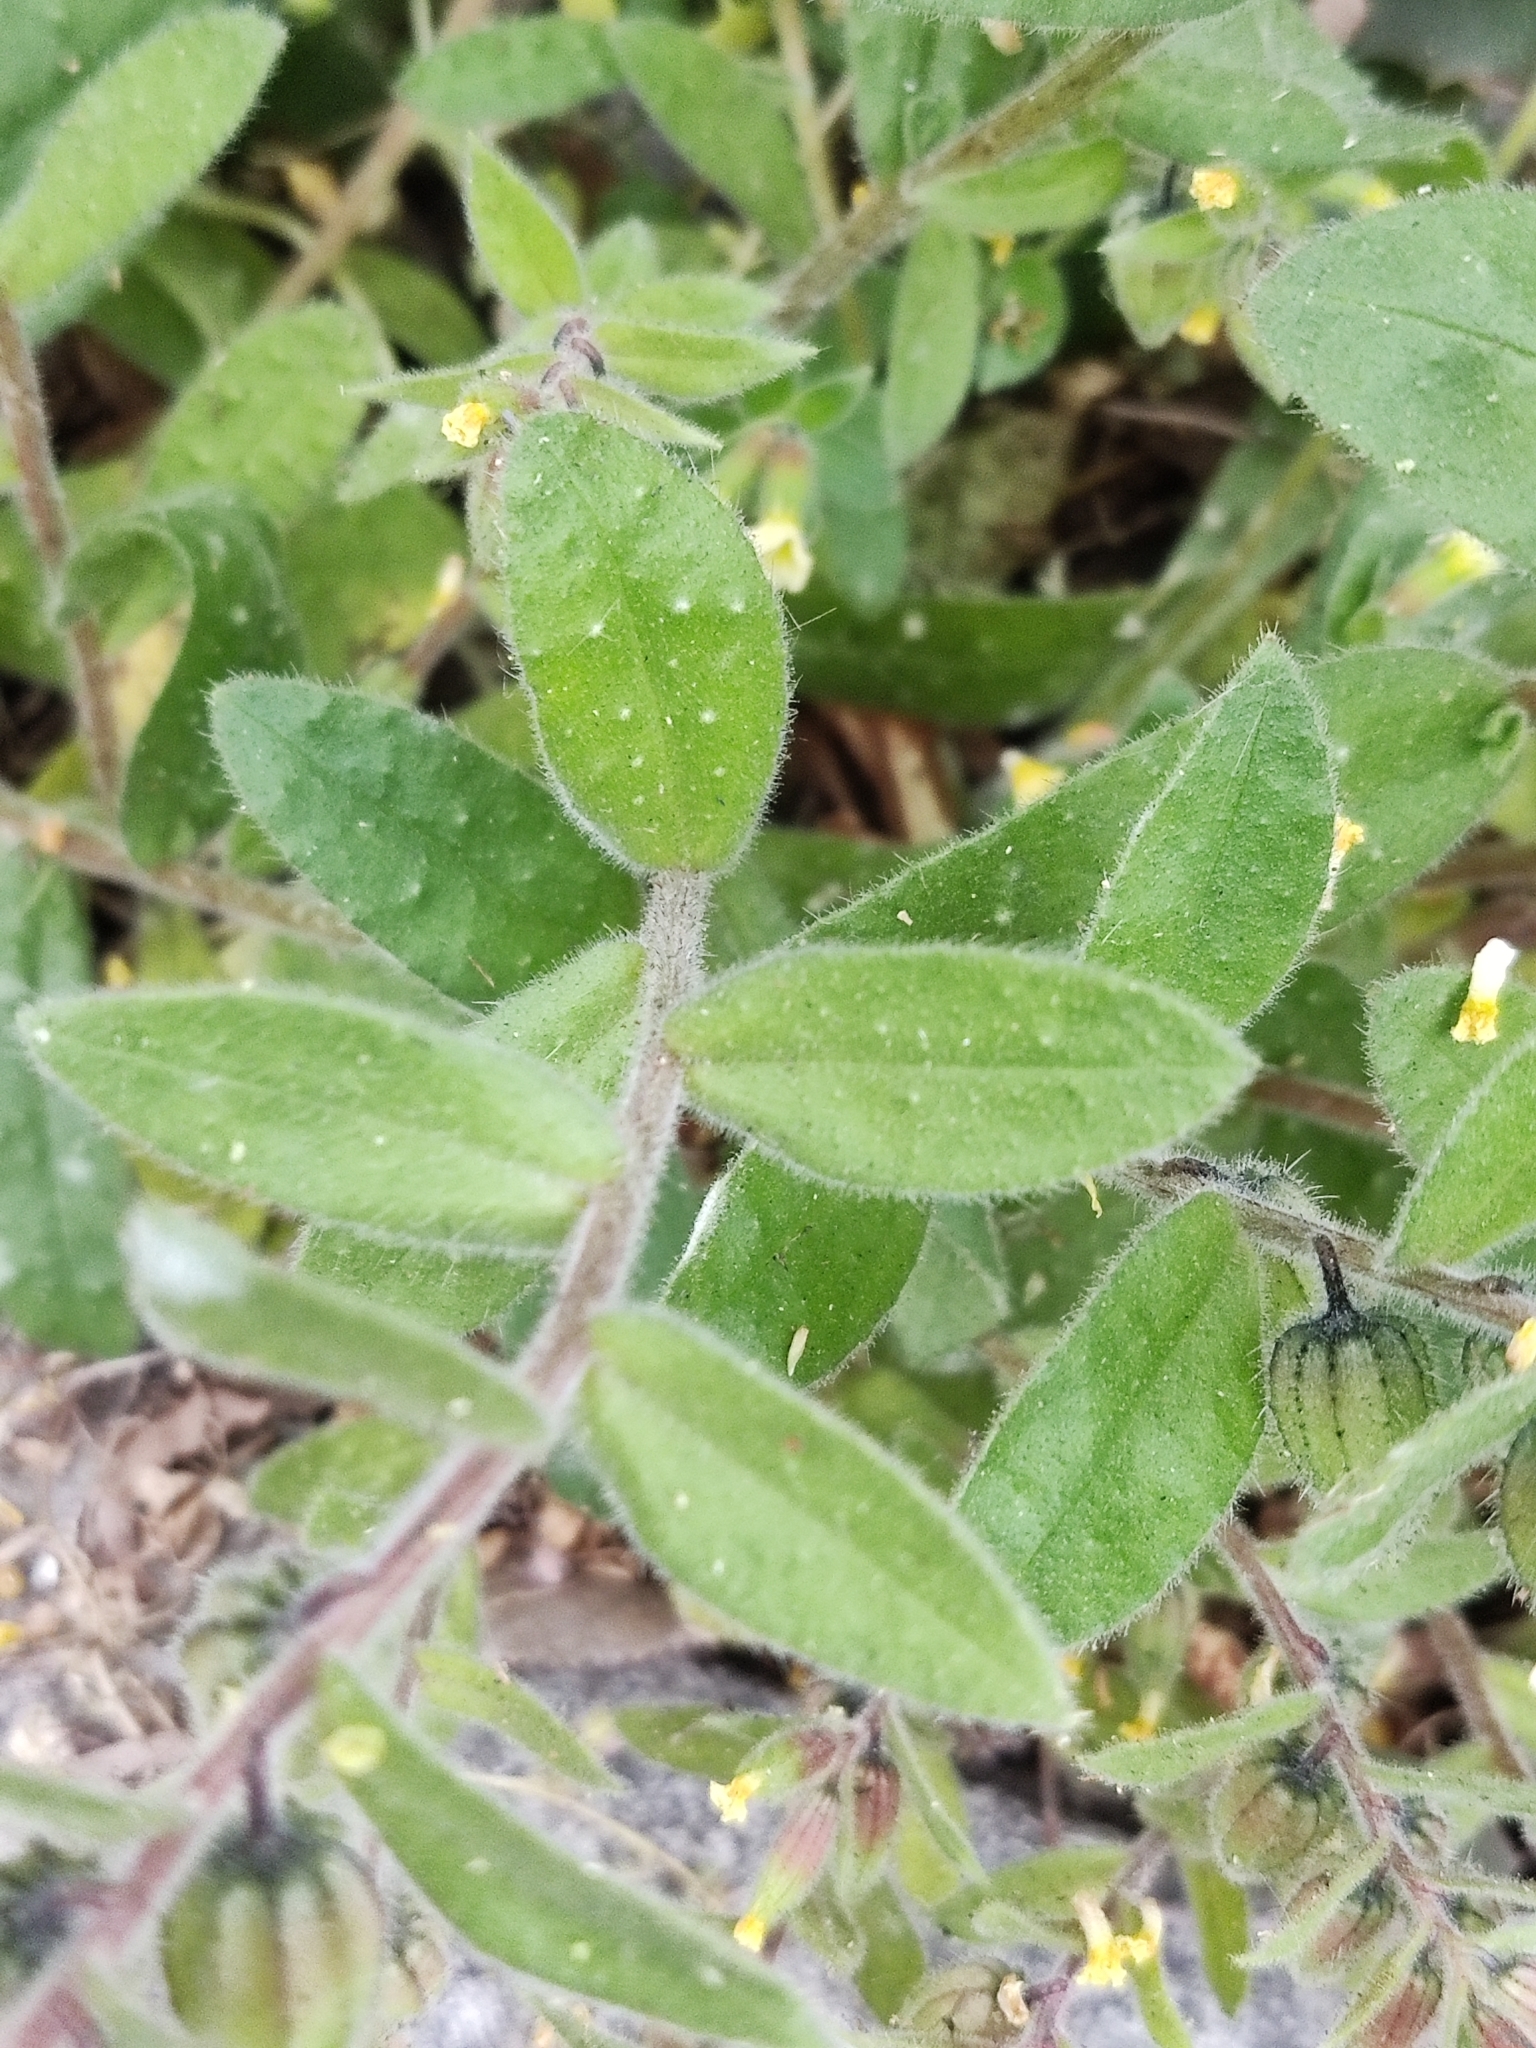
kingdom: Plantae
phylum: Tracheophyta
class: Magnoliopsida
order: Boraginales
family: Boraginaceae
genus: Nonea
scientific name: Nonea lutea
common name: Yellow nonea
